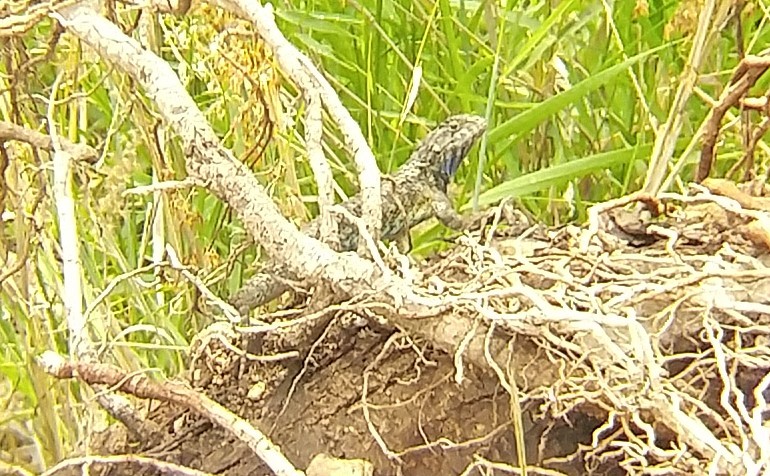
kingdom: Animalia
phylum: Chordata
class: Squamata
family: Phrynosomatidae
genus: Sceloporus
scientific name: Sceloporus spinosus
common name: Blue-spotted spiny lizard [caeruleopunctatus]
